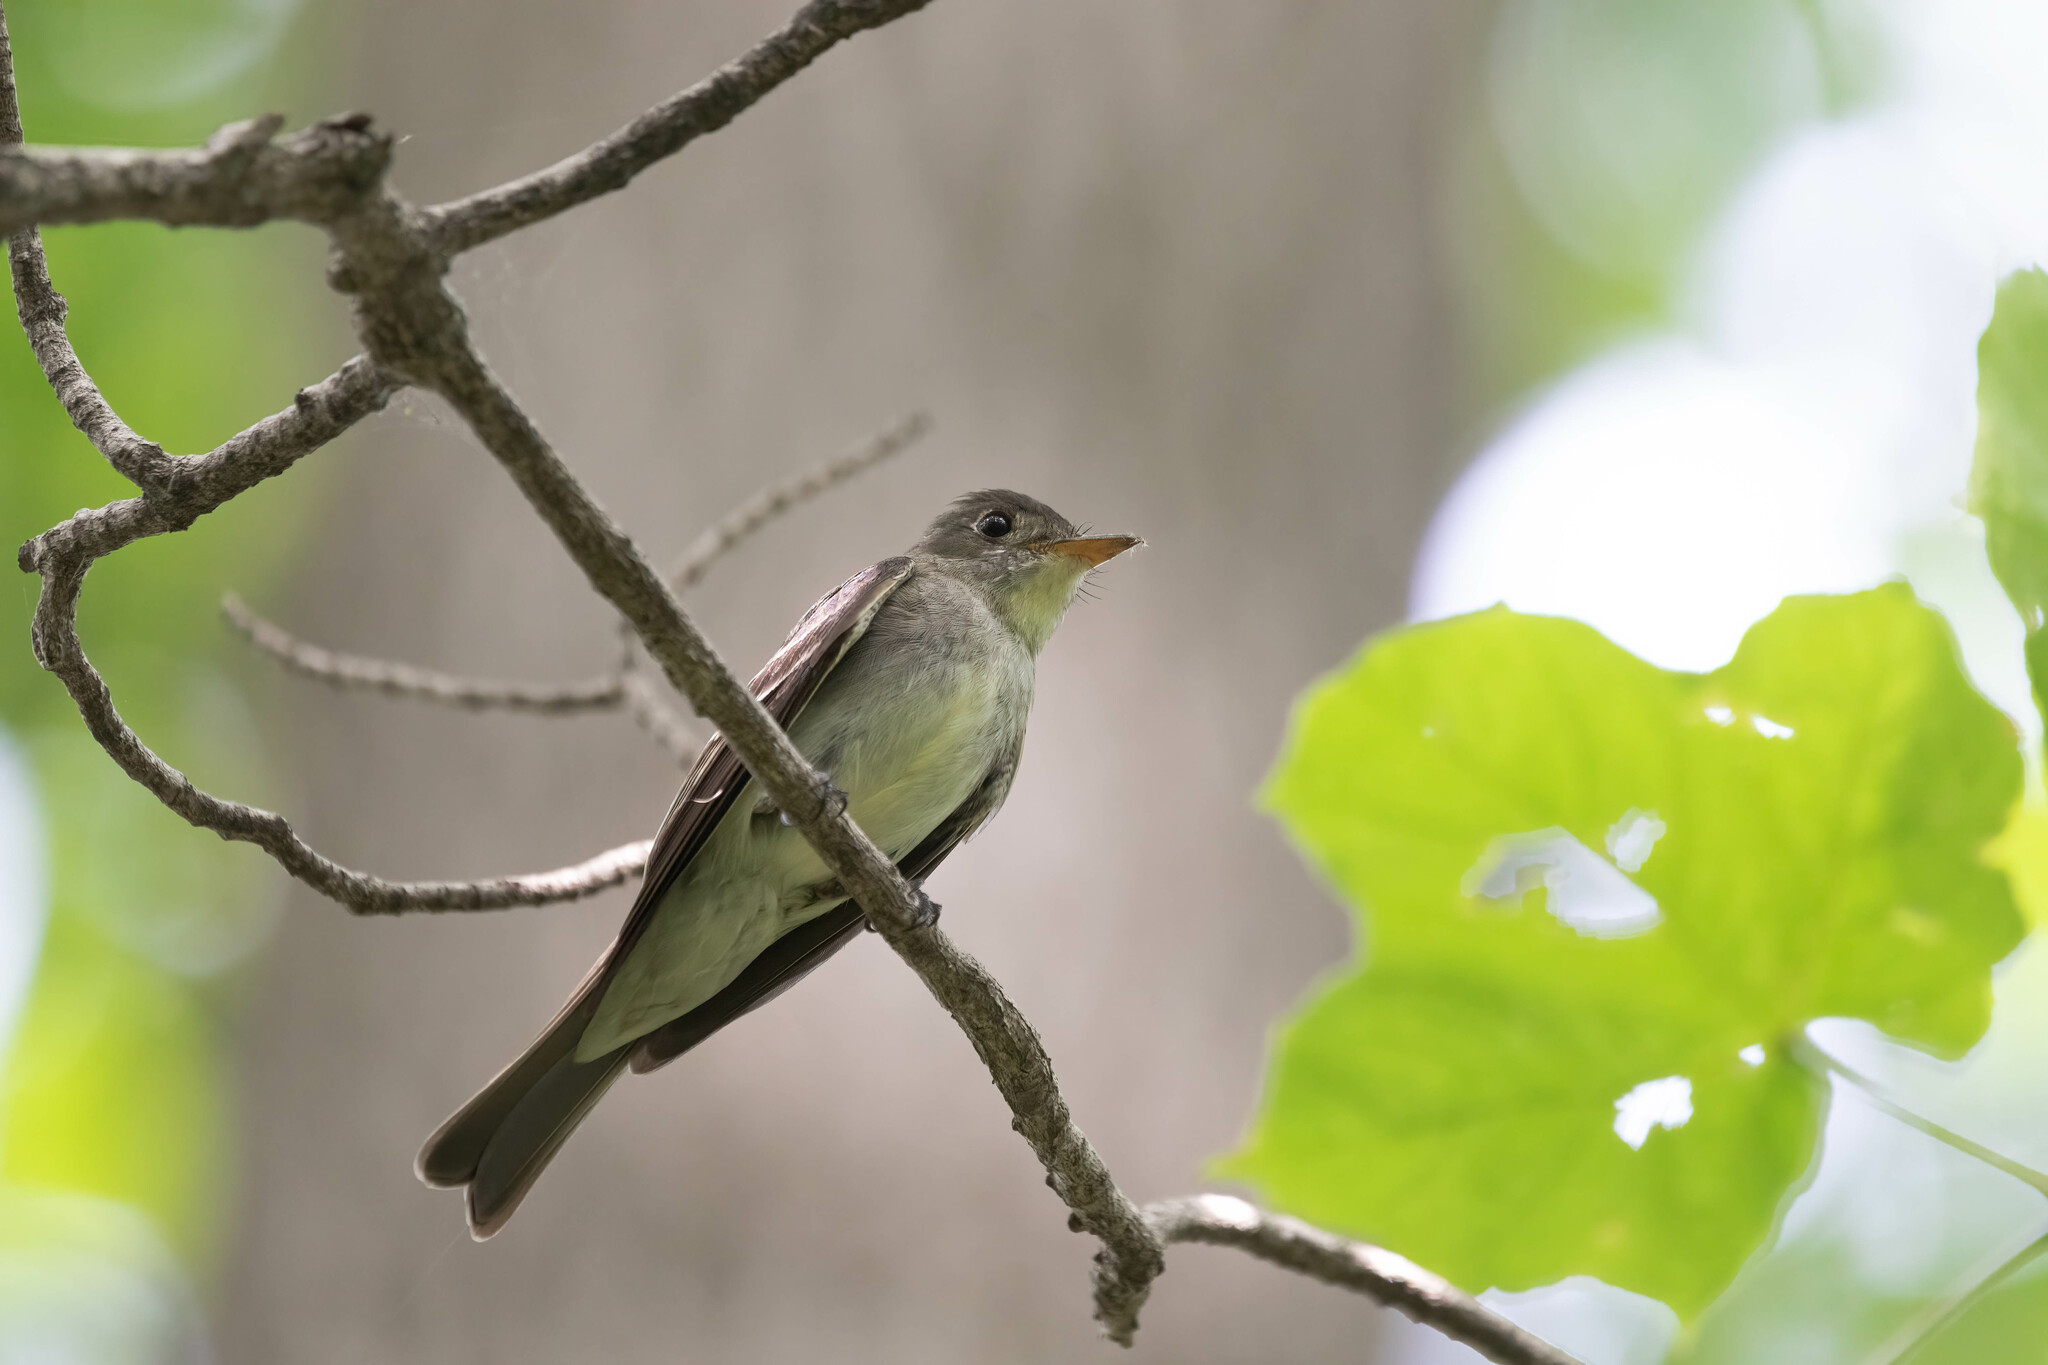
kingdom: Animalia
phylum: Chordata
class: Aves
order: Passeriformes
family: Tyrannidae
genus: Contopus
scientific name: Contopus virens
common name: Eastern wood-pewee
